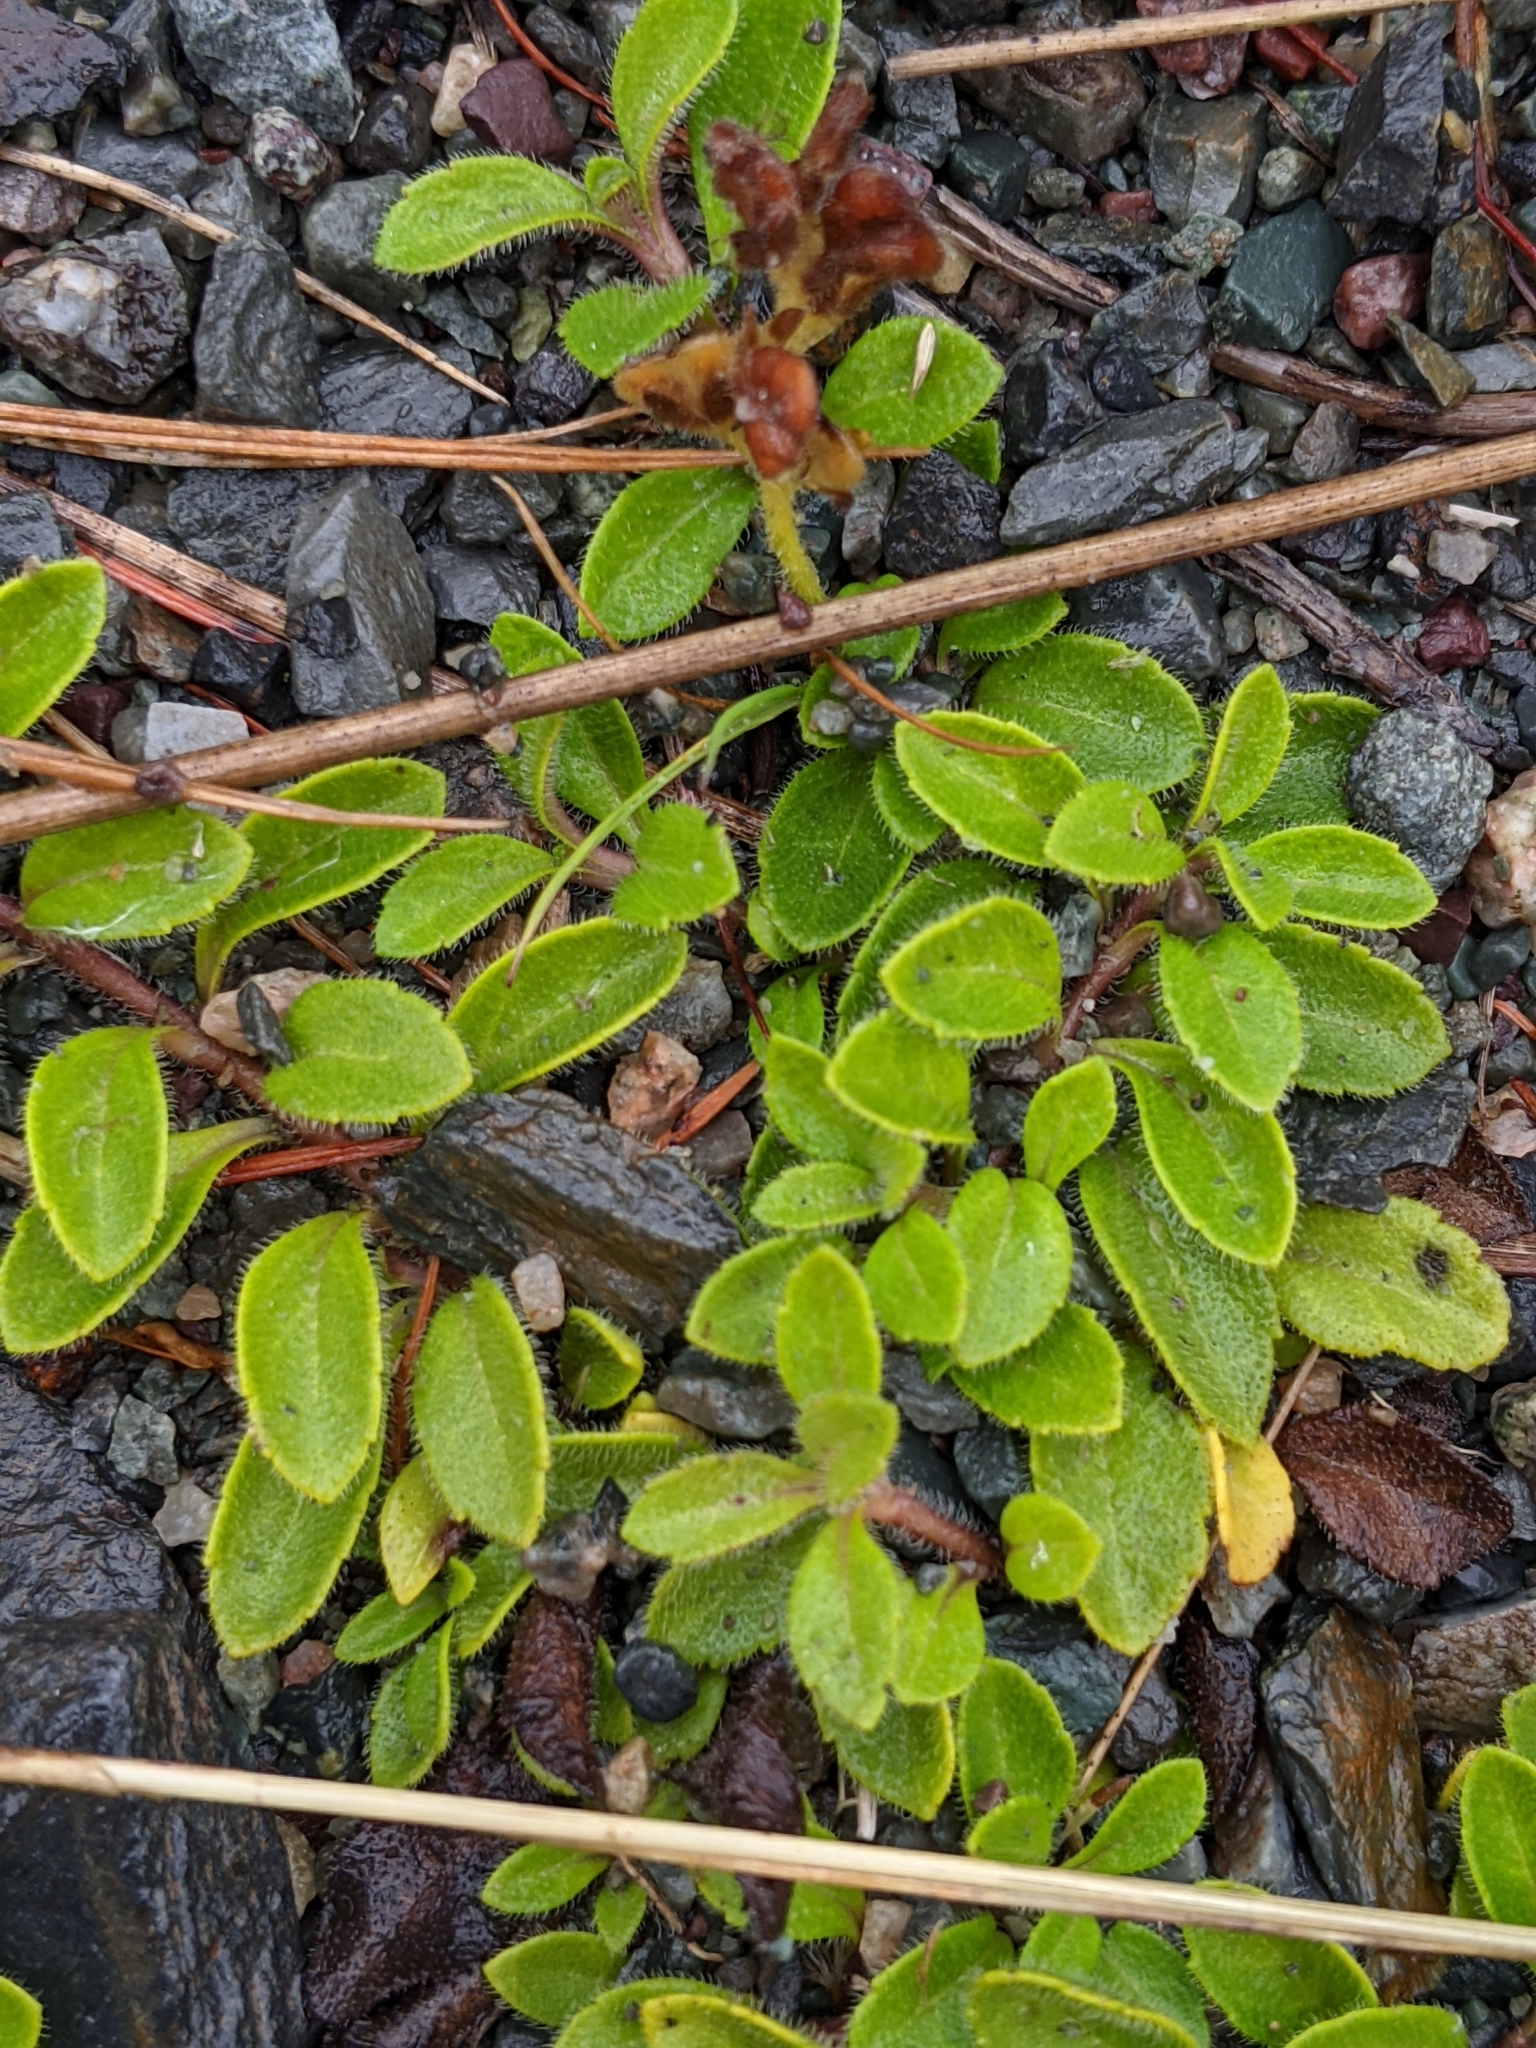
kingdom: Plantae
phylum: Tracheophyta
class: Magnoliopsida
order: Lamiales
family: Plantaginaceae
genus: Veronica
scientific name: Veronica officinalis
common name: Common speedwell
